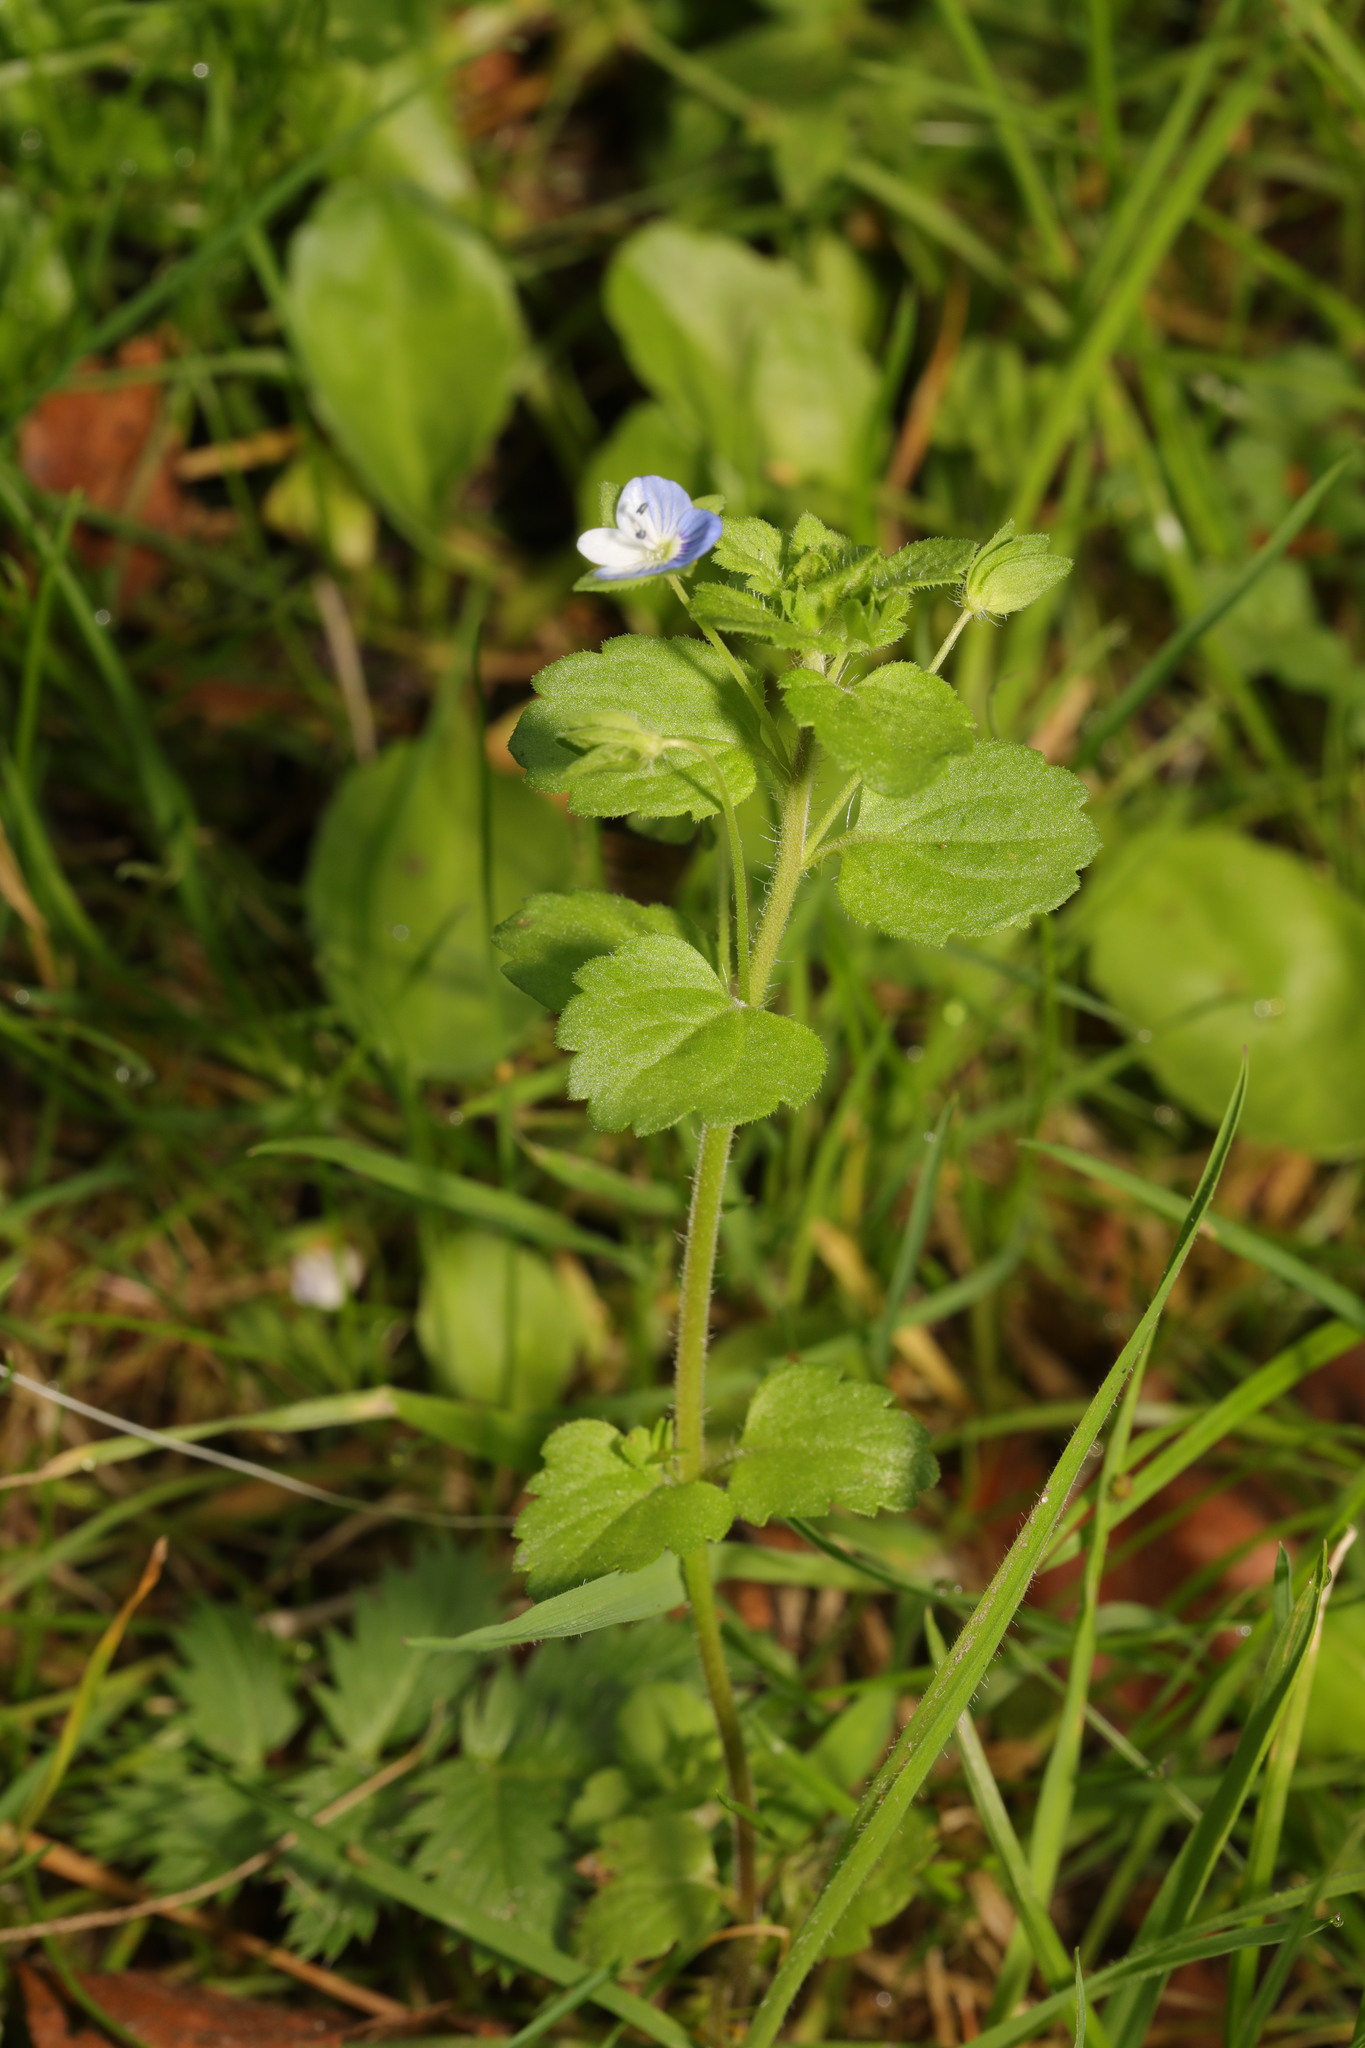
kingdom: Plantae
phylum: Tracheophyta
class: Magnoliopsida
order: Lamiales
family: Plantaginaceae
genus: Veronica
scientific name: Veronica persica
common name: Common field-speedwell
